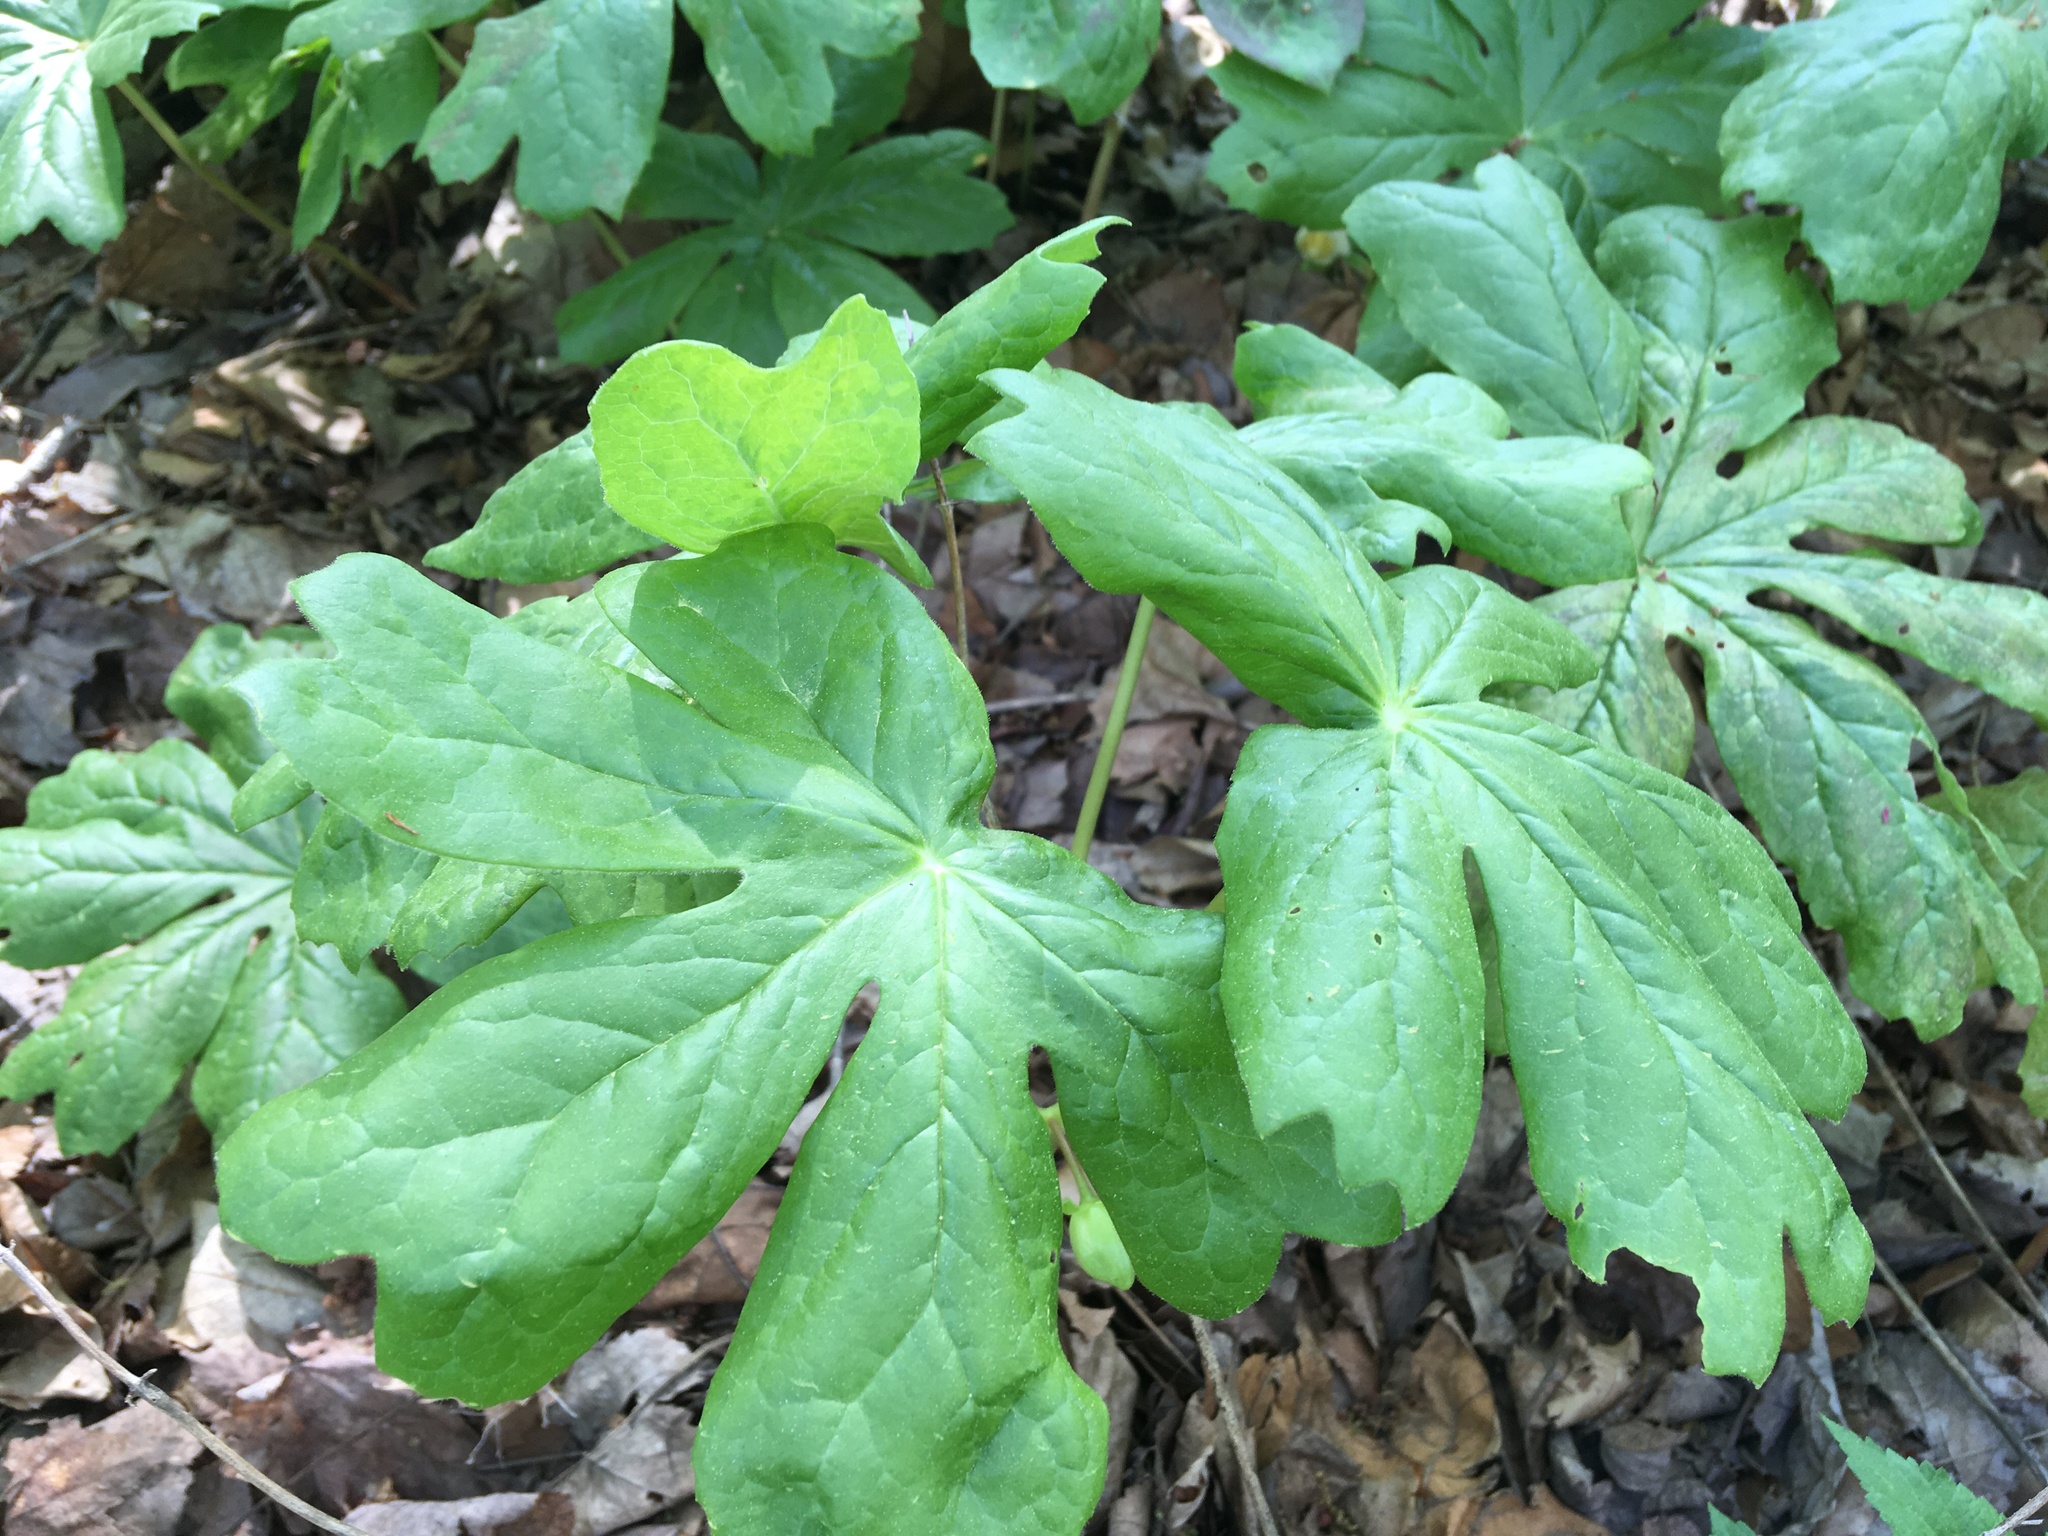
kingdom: Plantae
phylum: Tracheophyta
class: Magnoliopsida
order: Ranunculales
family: Berberidaceae
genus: Podophyllum
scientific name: Podophyllum peltatum
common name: Wild mandrake
